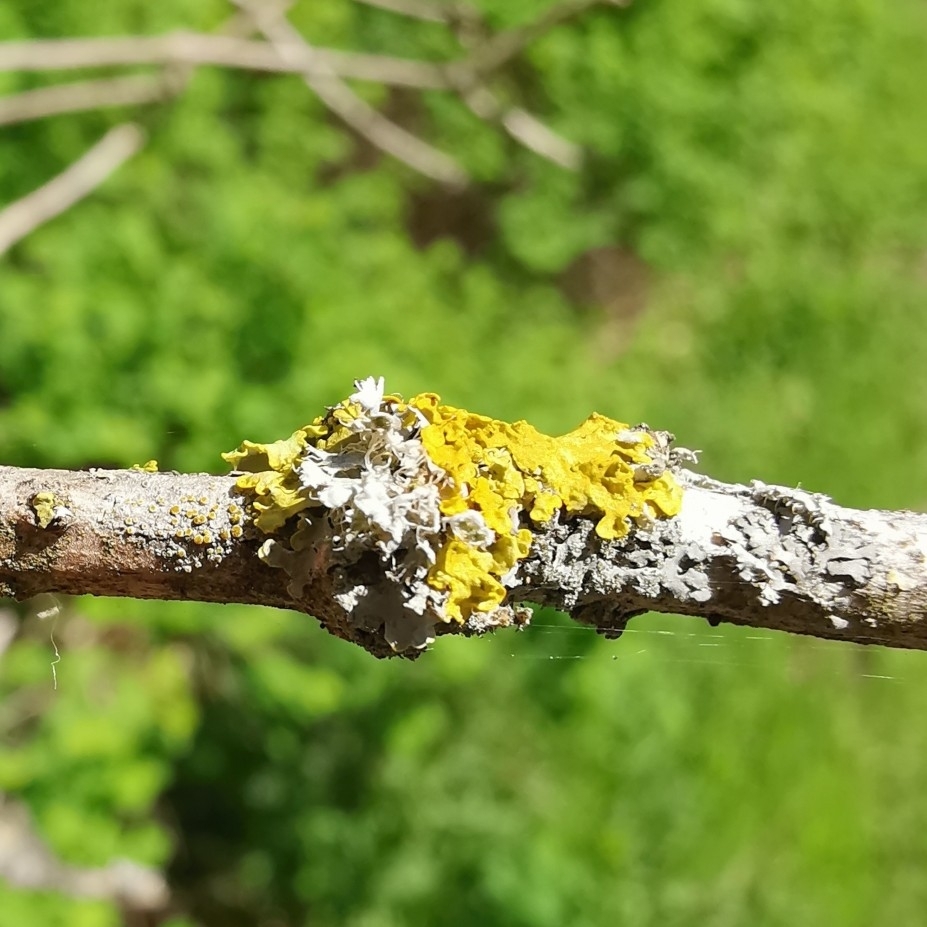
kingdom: Fungi
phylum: Ascomycota
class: Lecanoromycetes
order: Teloschistales
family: Teloschistaceae
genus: Xanthoria
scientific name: Xanthoria parietina
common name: Common orange lichen
